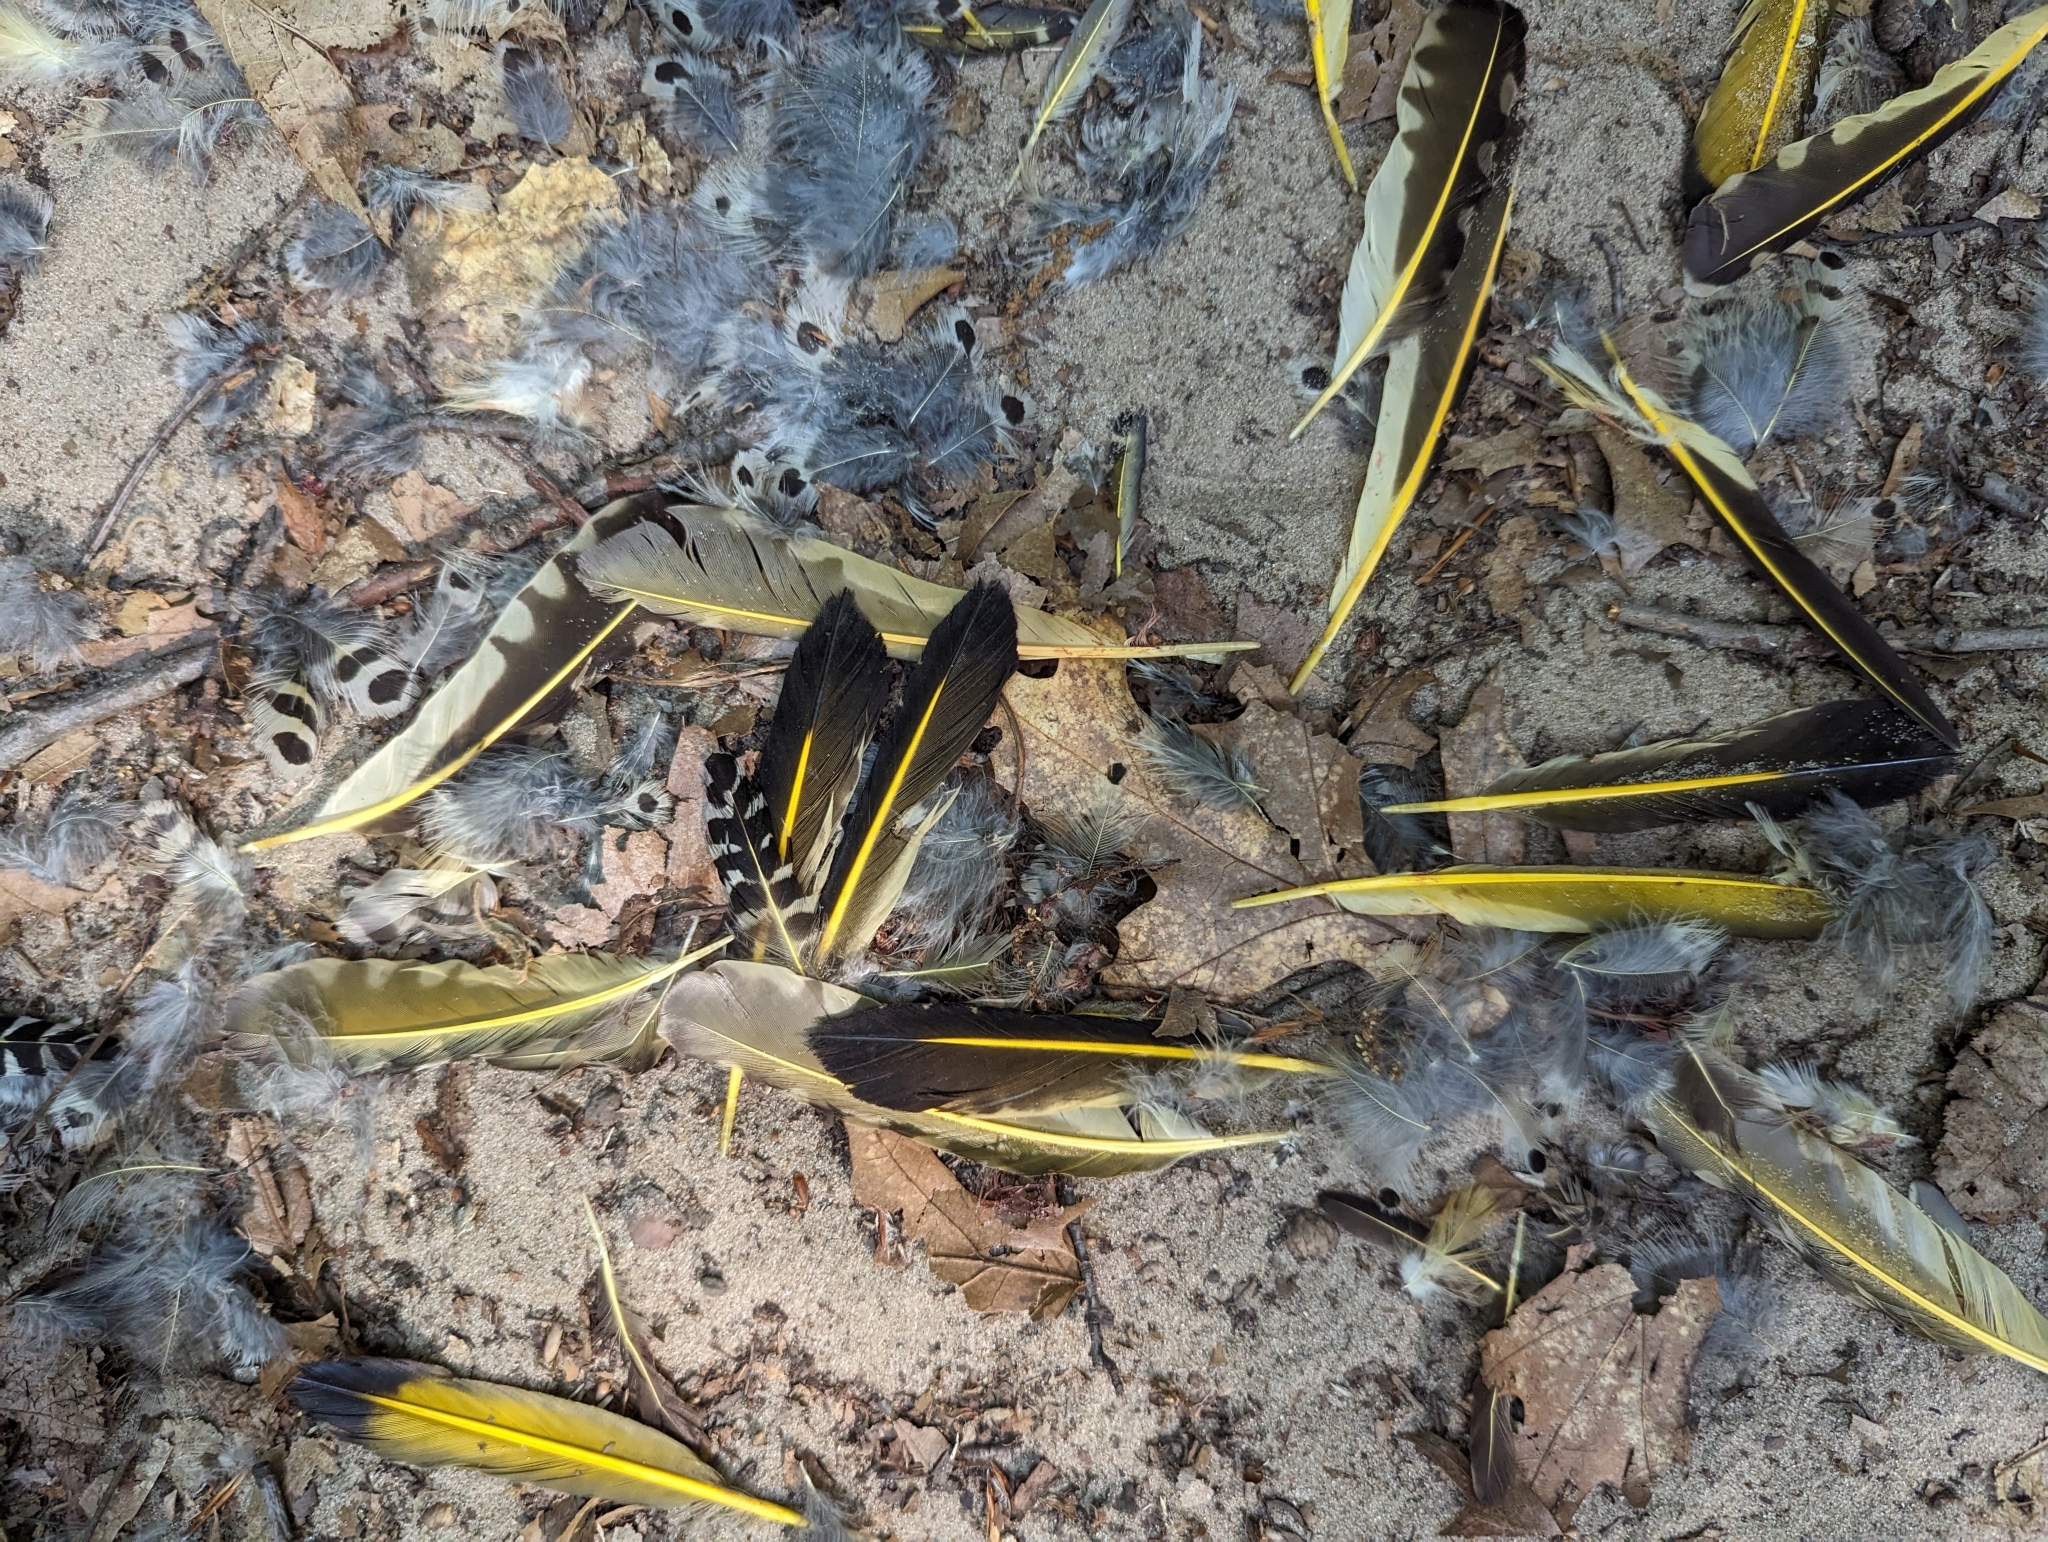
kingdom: Animalia
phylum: Chordata
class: Aves
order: Piciformes
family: Picidae
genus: Colaptes
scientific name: Colaptes auratus
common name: Northern flicker
